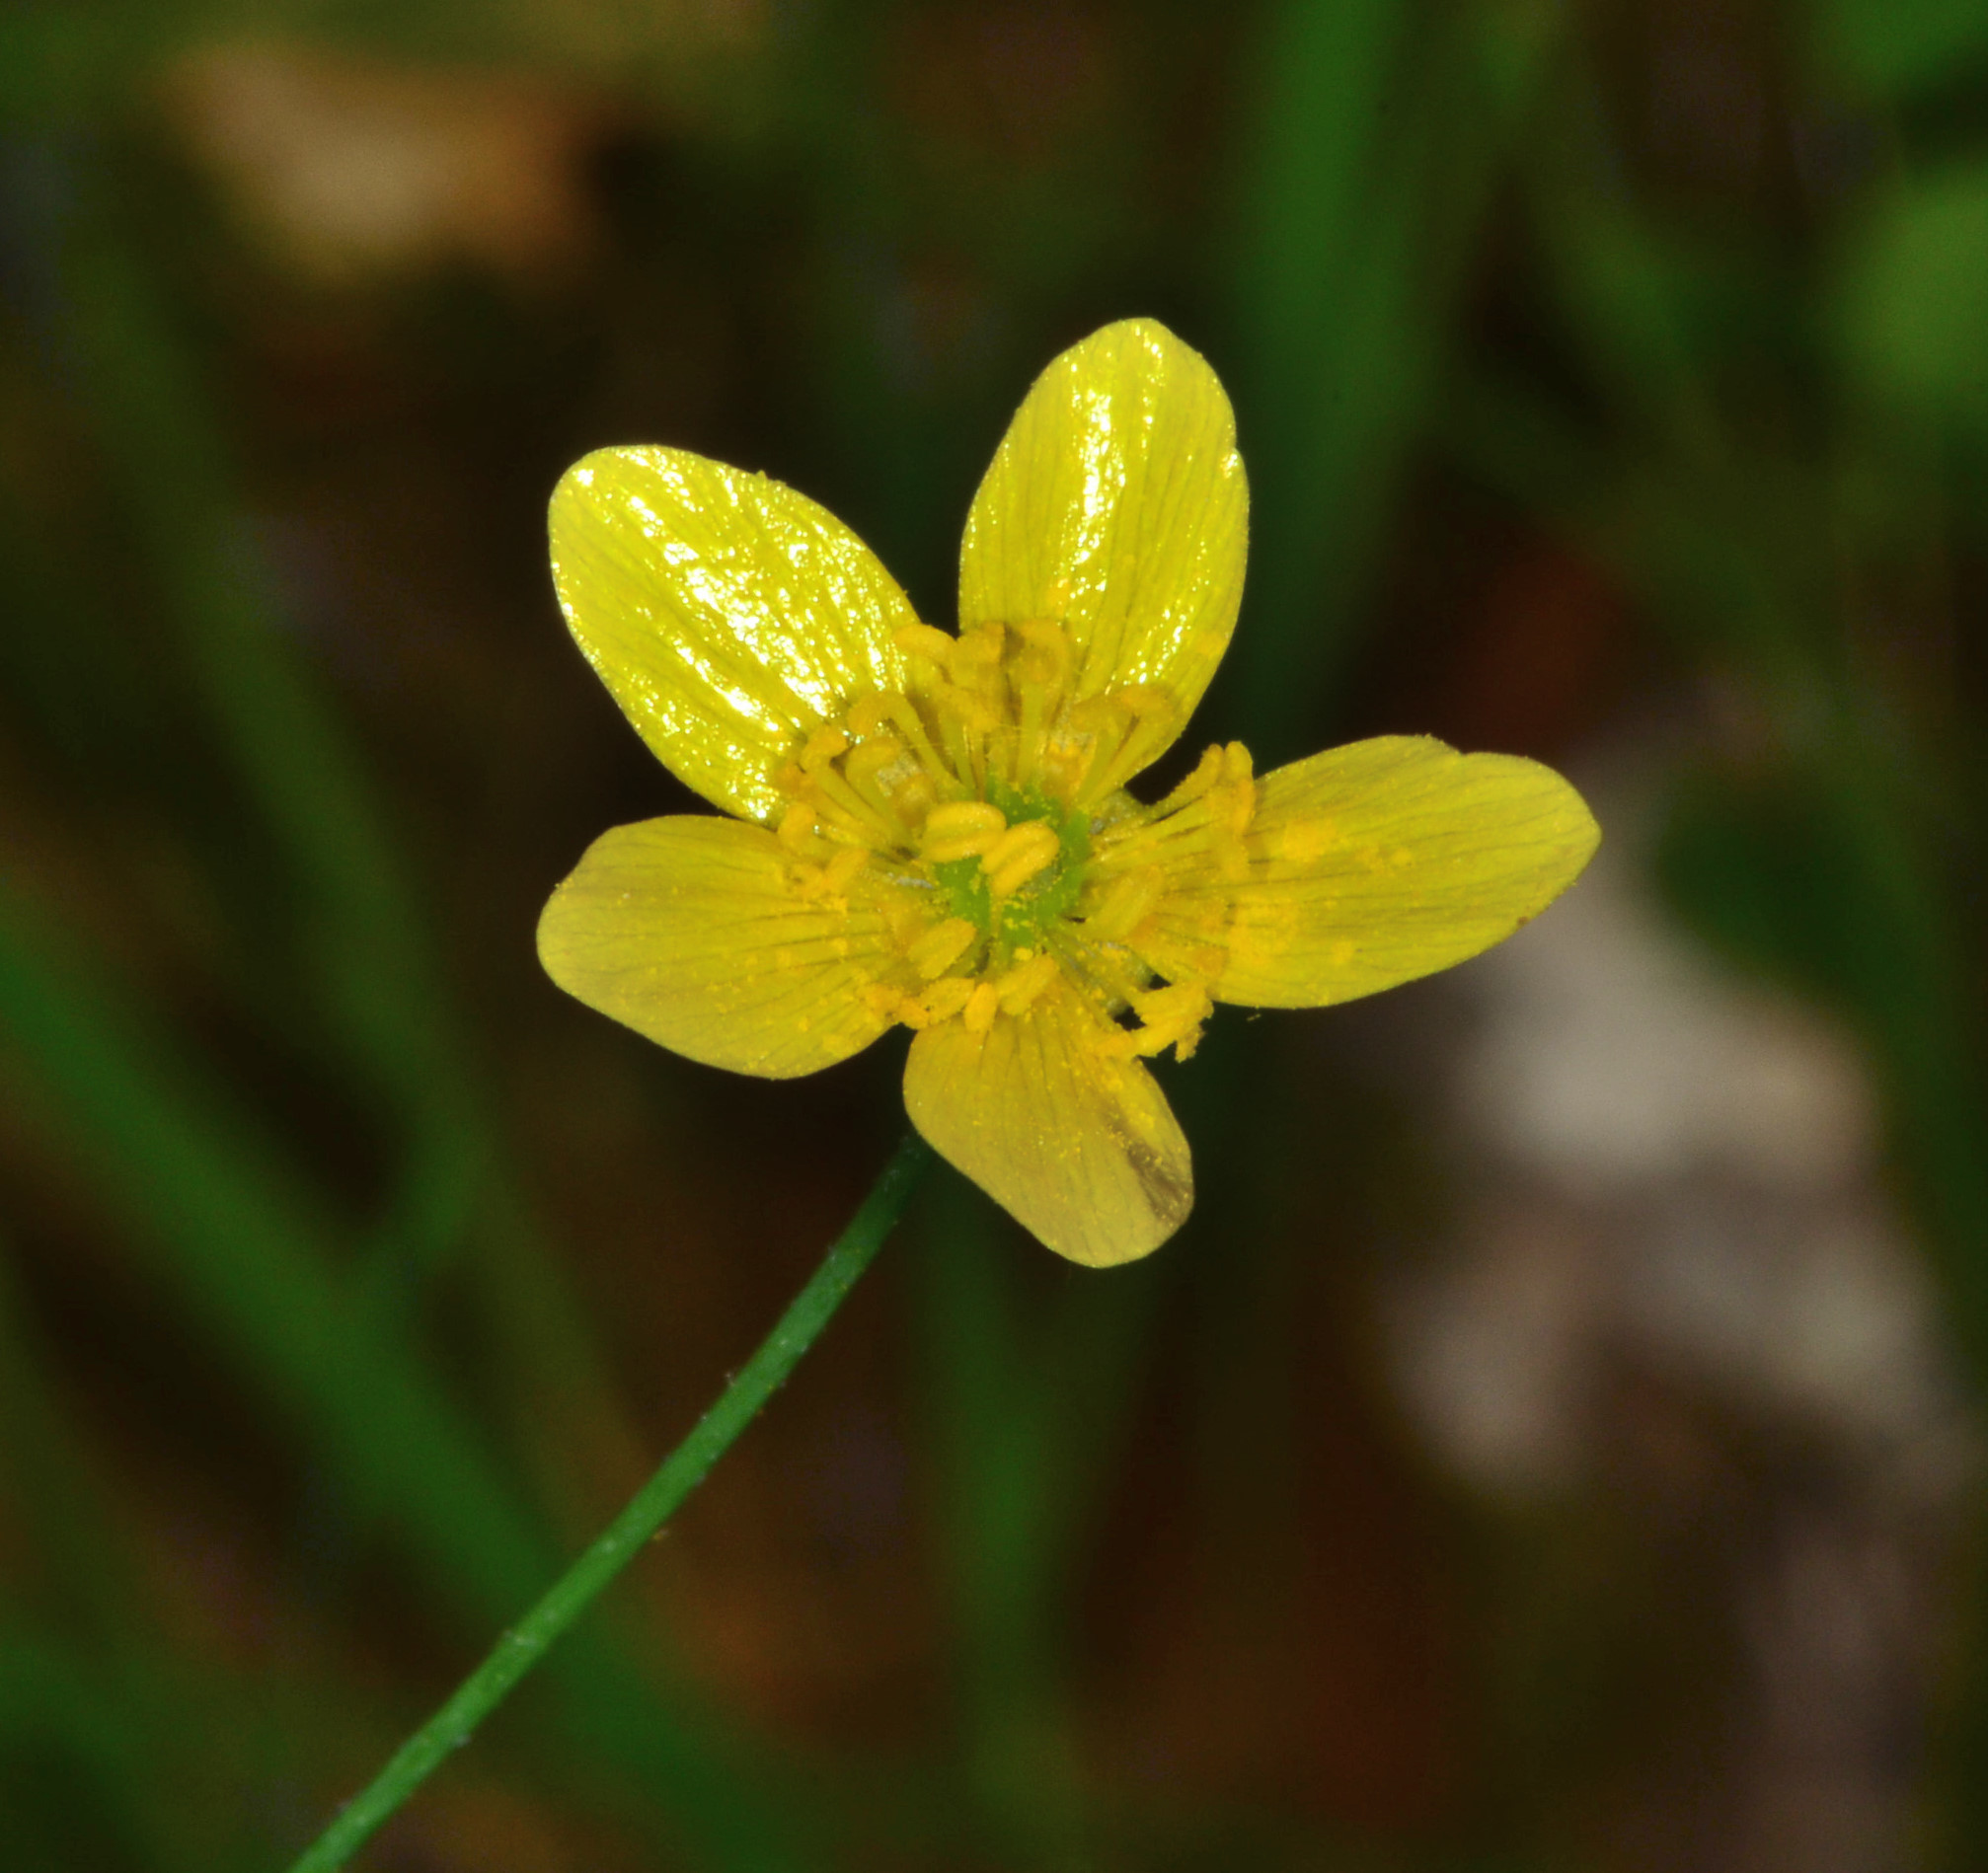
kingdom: Plantae
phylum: Tracheophyta
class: Magnoliopsida
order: Ranunculales
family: Ranunculaceae
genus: Ranunculus
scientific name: Ranunculus occidentalis
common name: Western buttercup
